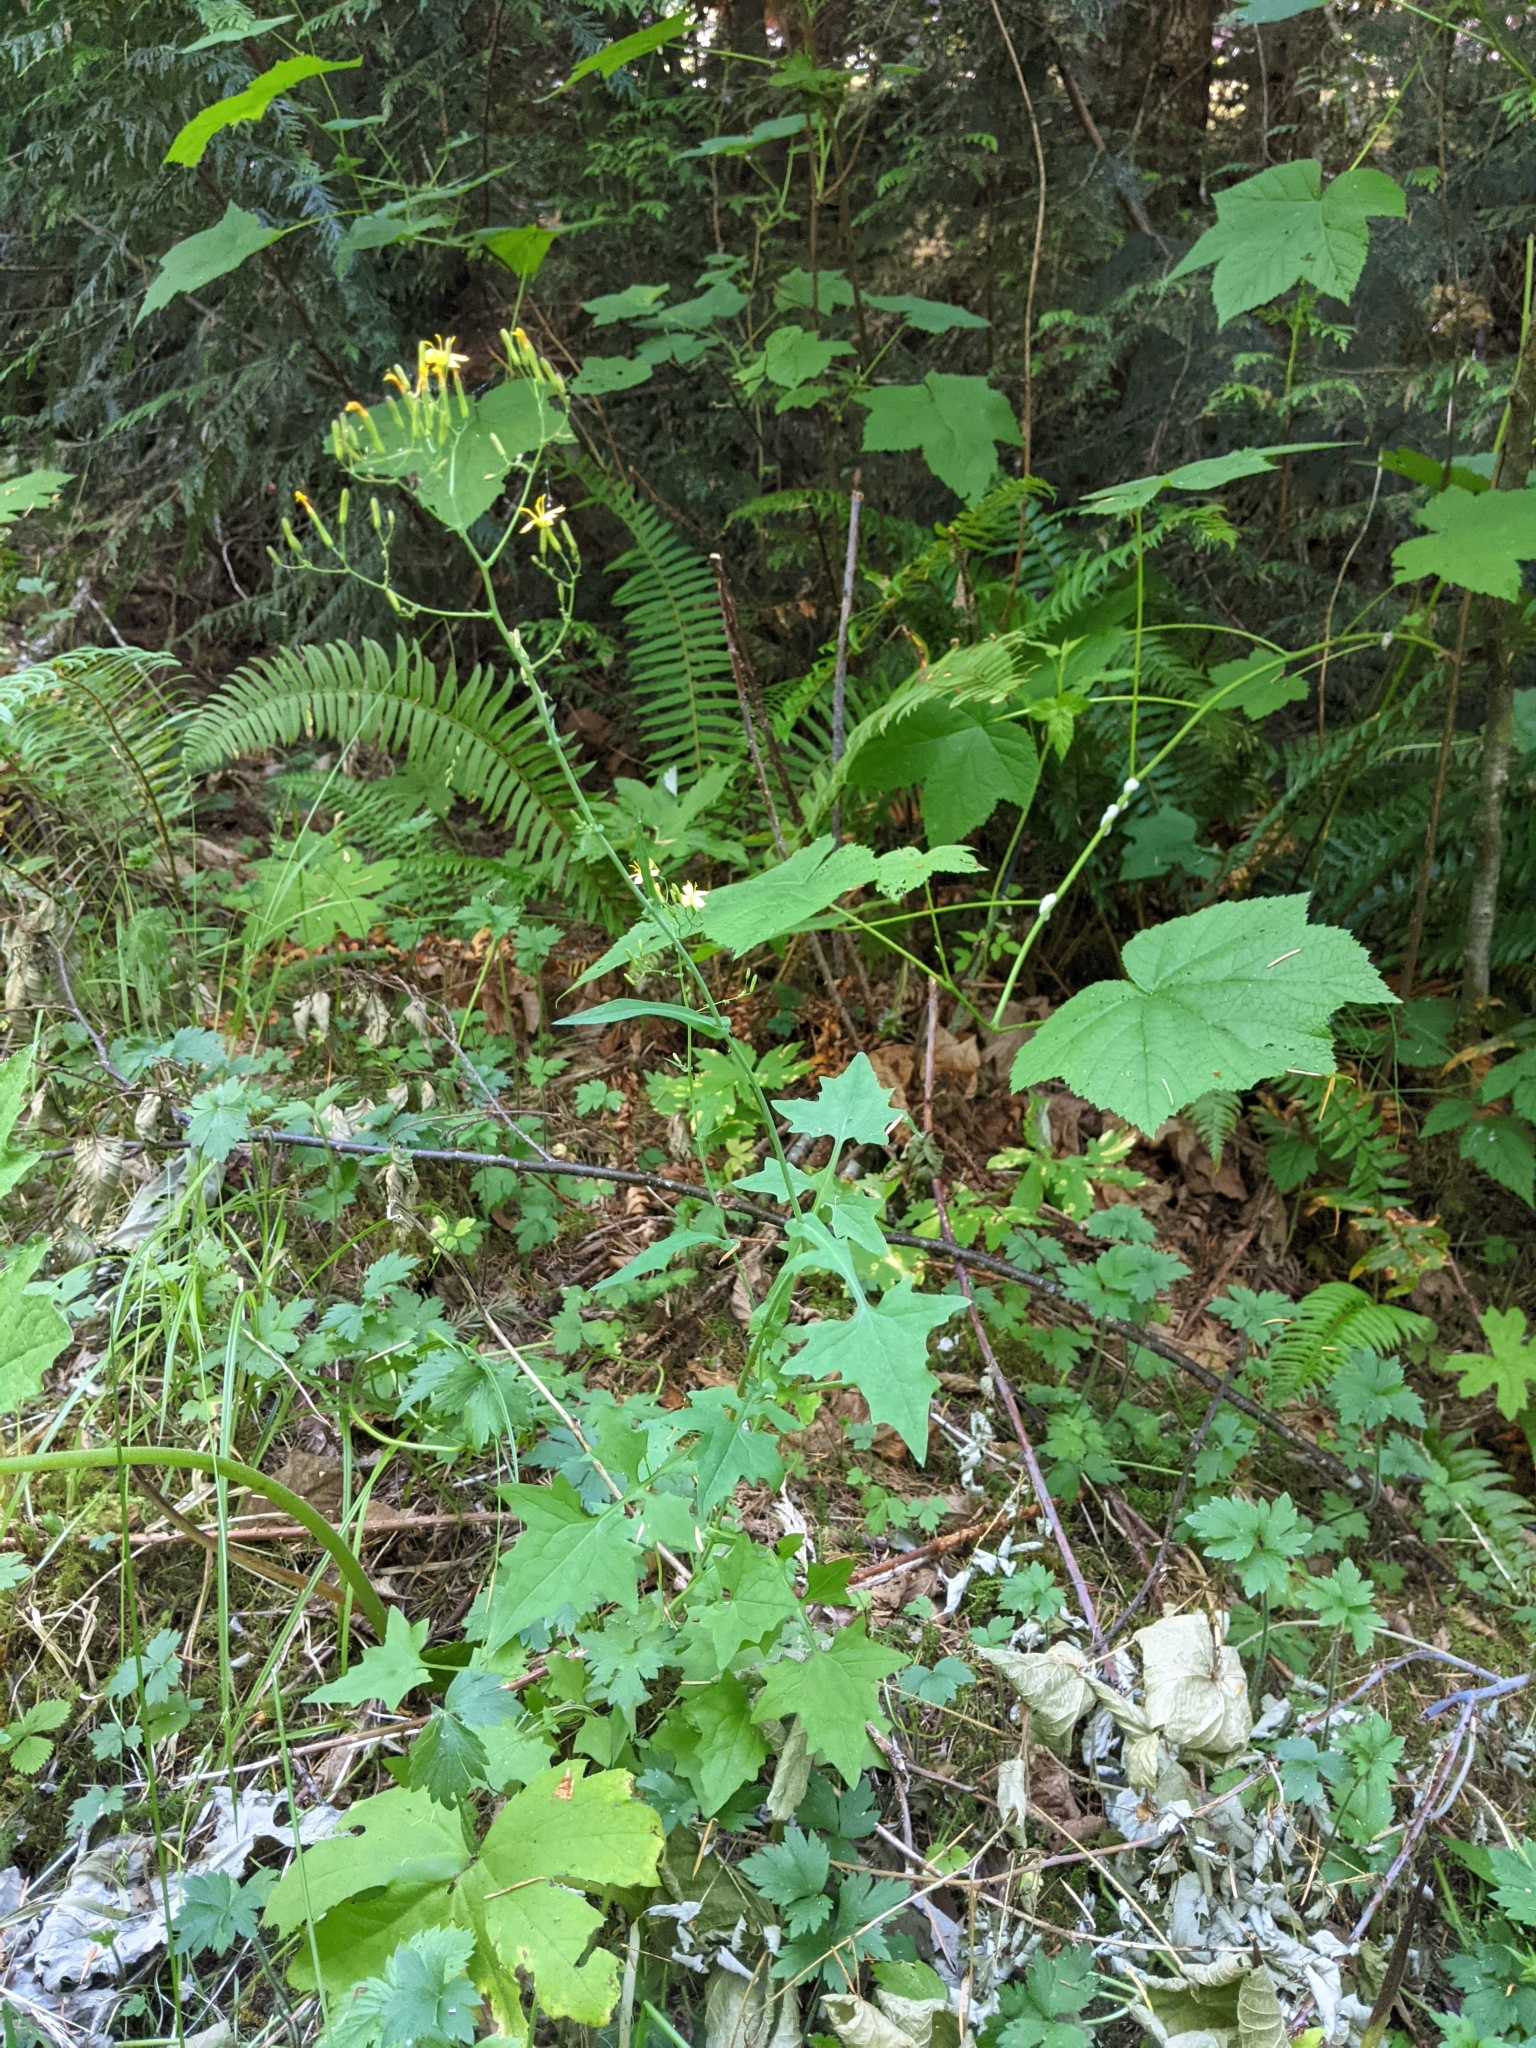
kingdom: Plantae
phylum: Tracheophyta
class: Magnoliopsida
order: Asterales
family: Asteraceae
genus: Mycelis
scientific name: Mycelis muralis
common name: Wall lettuce
